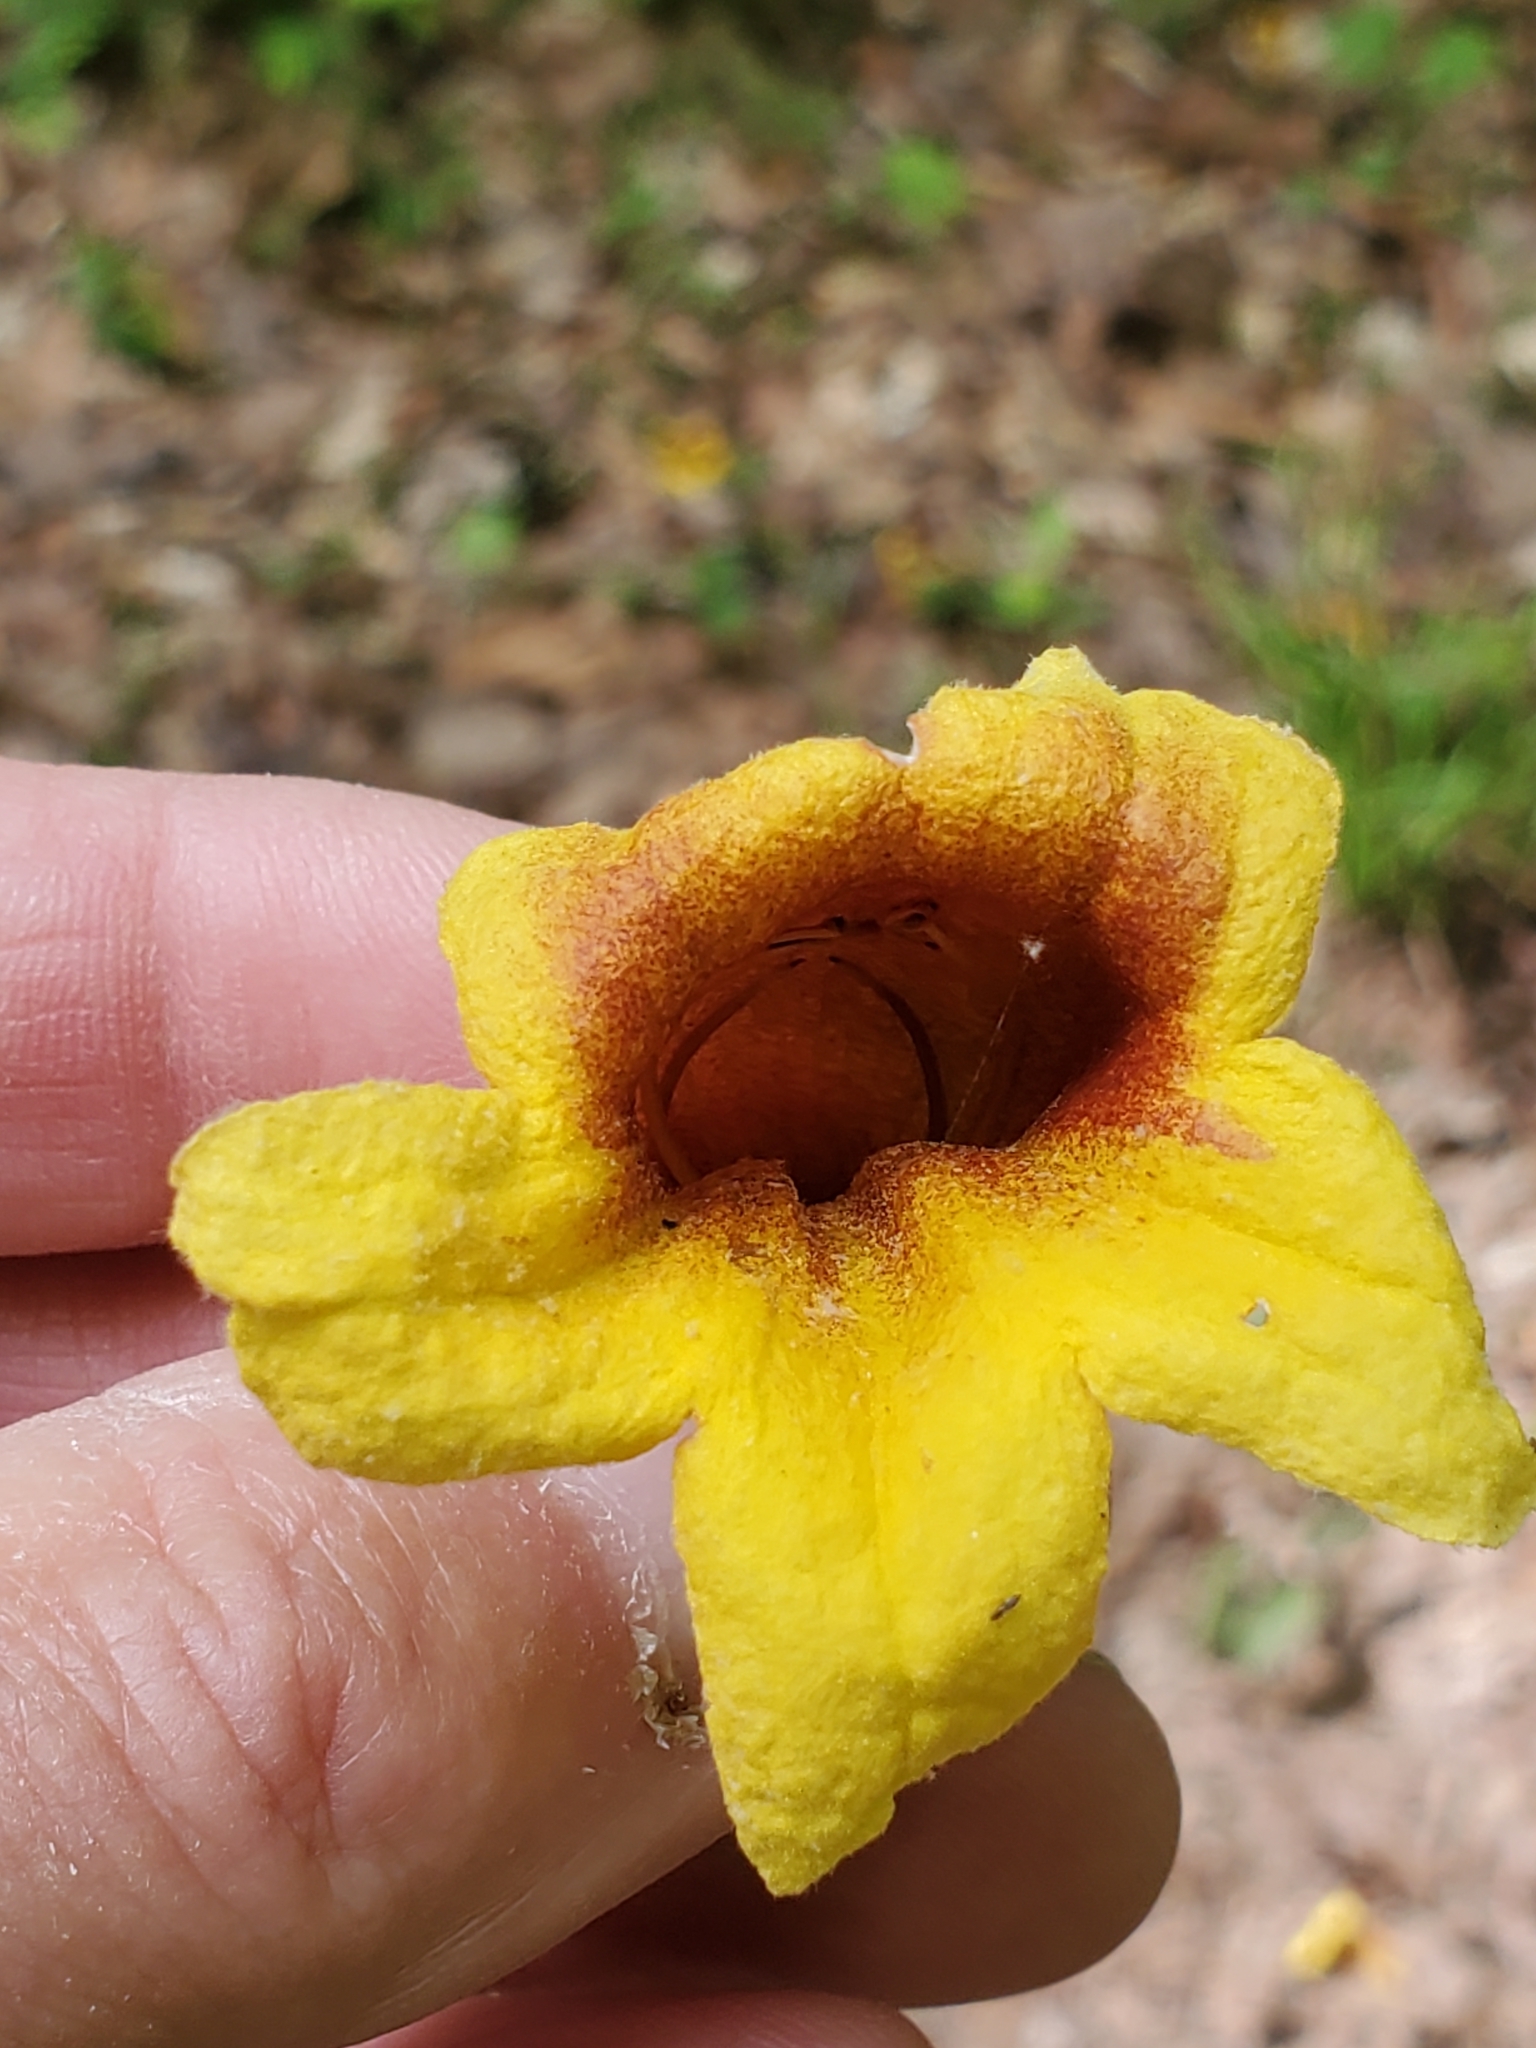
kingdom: Plantae
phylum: Tracheophyta
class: Magnoliopsida
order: Lamiales
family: Bignoniaceae
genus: Bignonia
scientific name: Bignonia capreolata
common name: Crossvine
